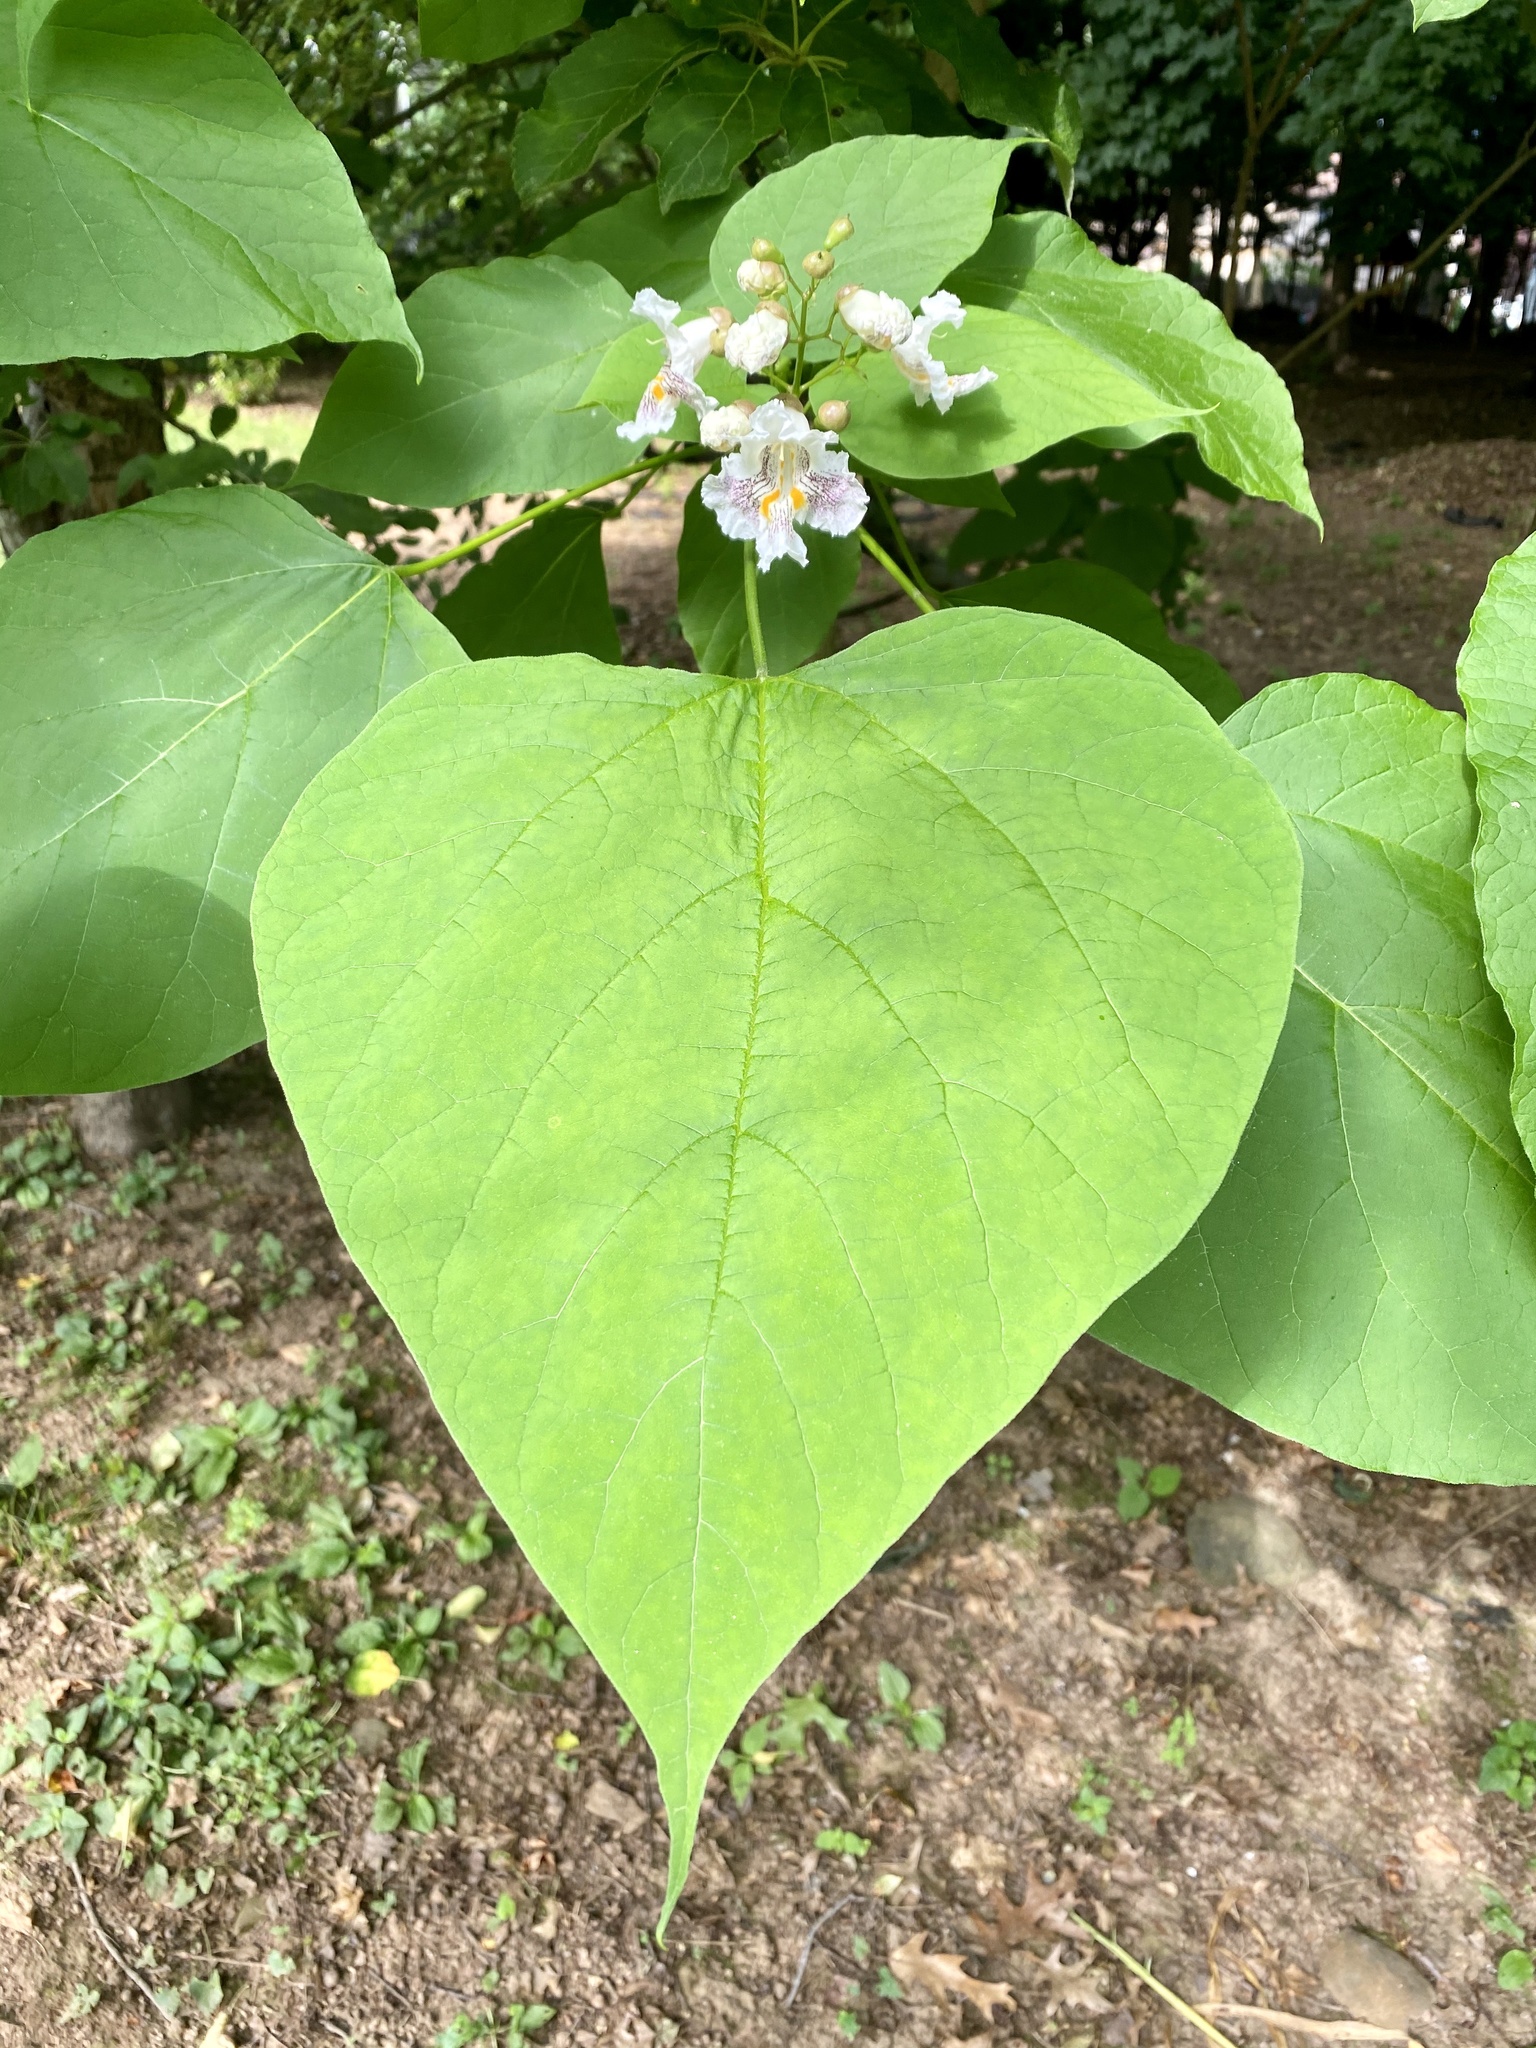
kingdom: Plantae
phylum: Tracheophyta
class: Magnoliopsida
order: Lamiales
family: Bignoniaceae
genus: Catalpa
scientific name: Catalpa speciosa
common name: Northern catalpa
